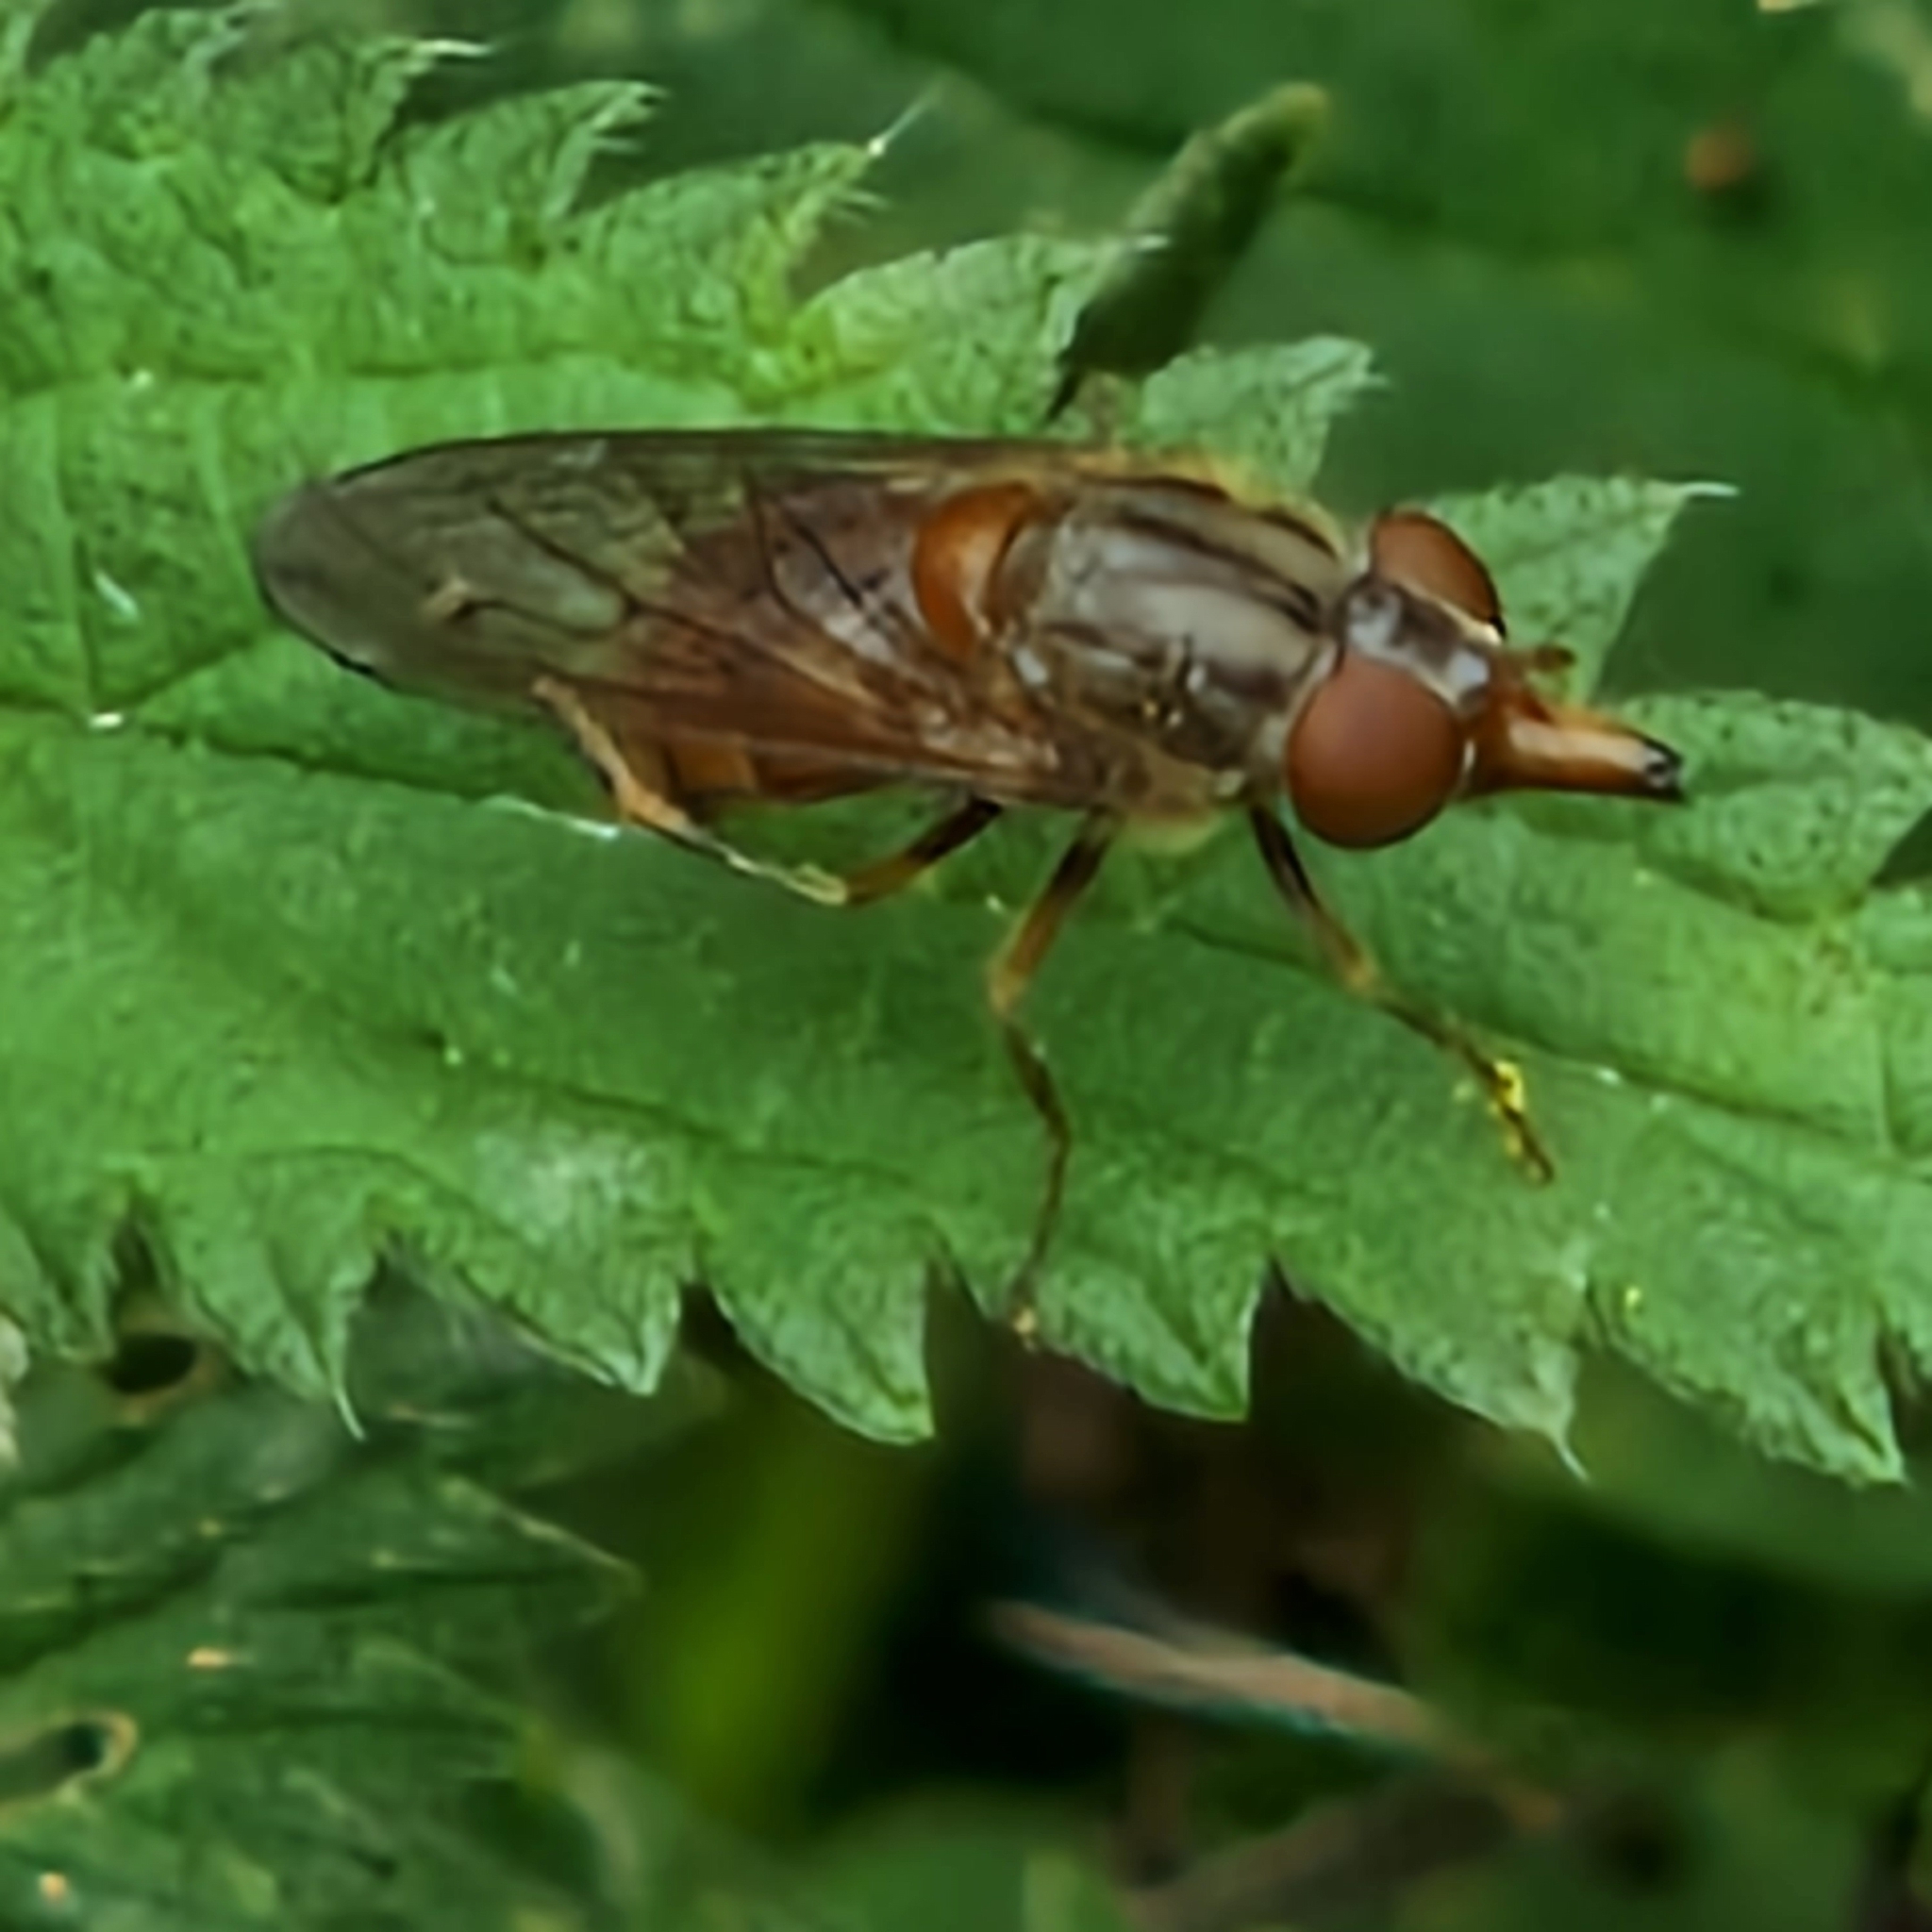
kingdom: Animalia
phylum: Arthropoda
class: Insecta
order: Diptera
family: Syrphidae
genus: Rhingia
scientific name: Rhingia campestris
